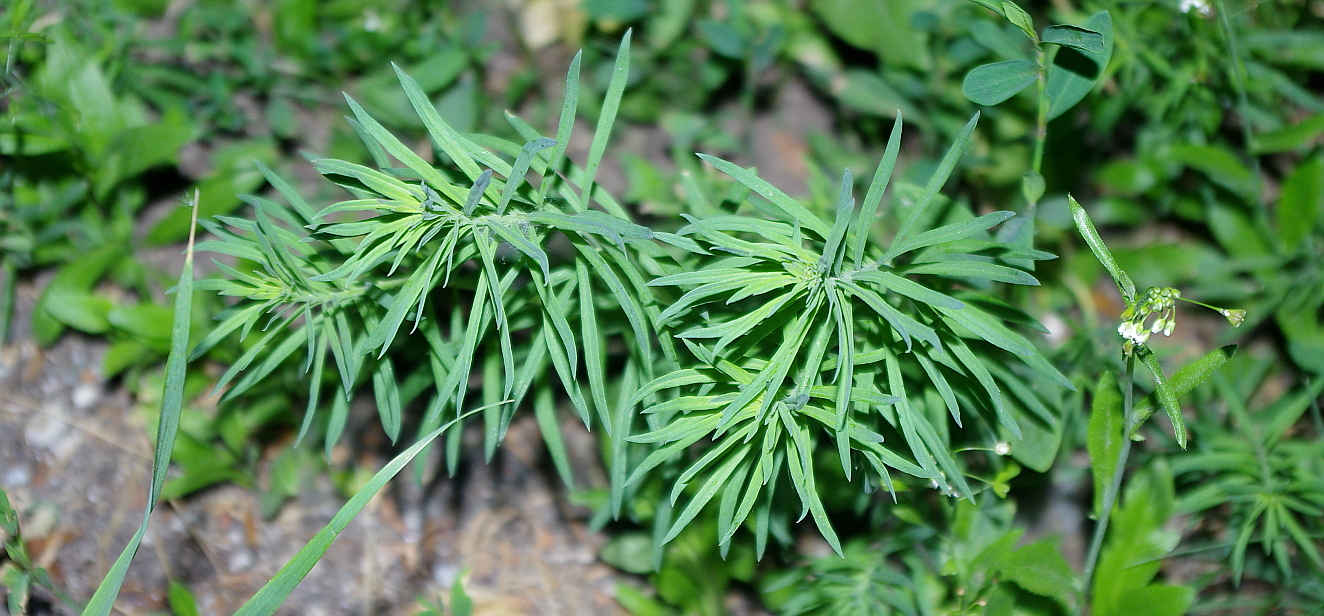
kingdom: Plantae
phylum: Tracheophyta
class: Magnoliopsida
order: Lamiales
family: Plantaginaceae
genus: Linaria
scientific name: Linaria vulgaris
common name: Butter and eggs
